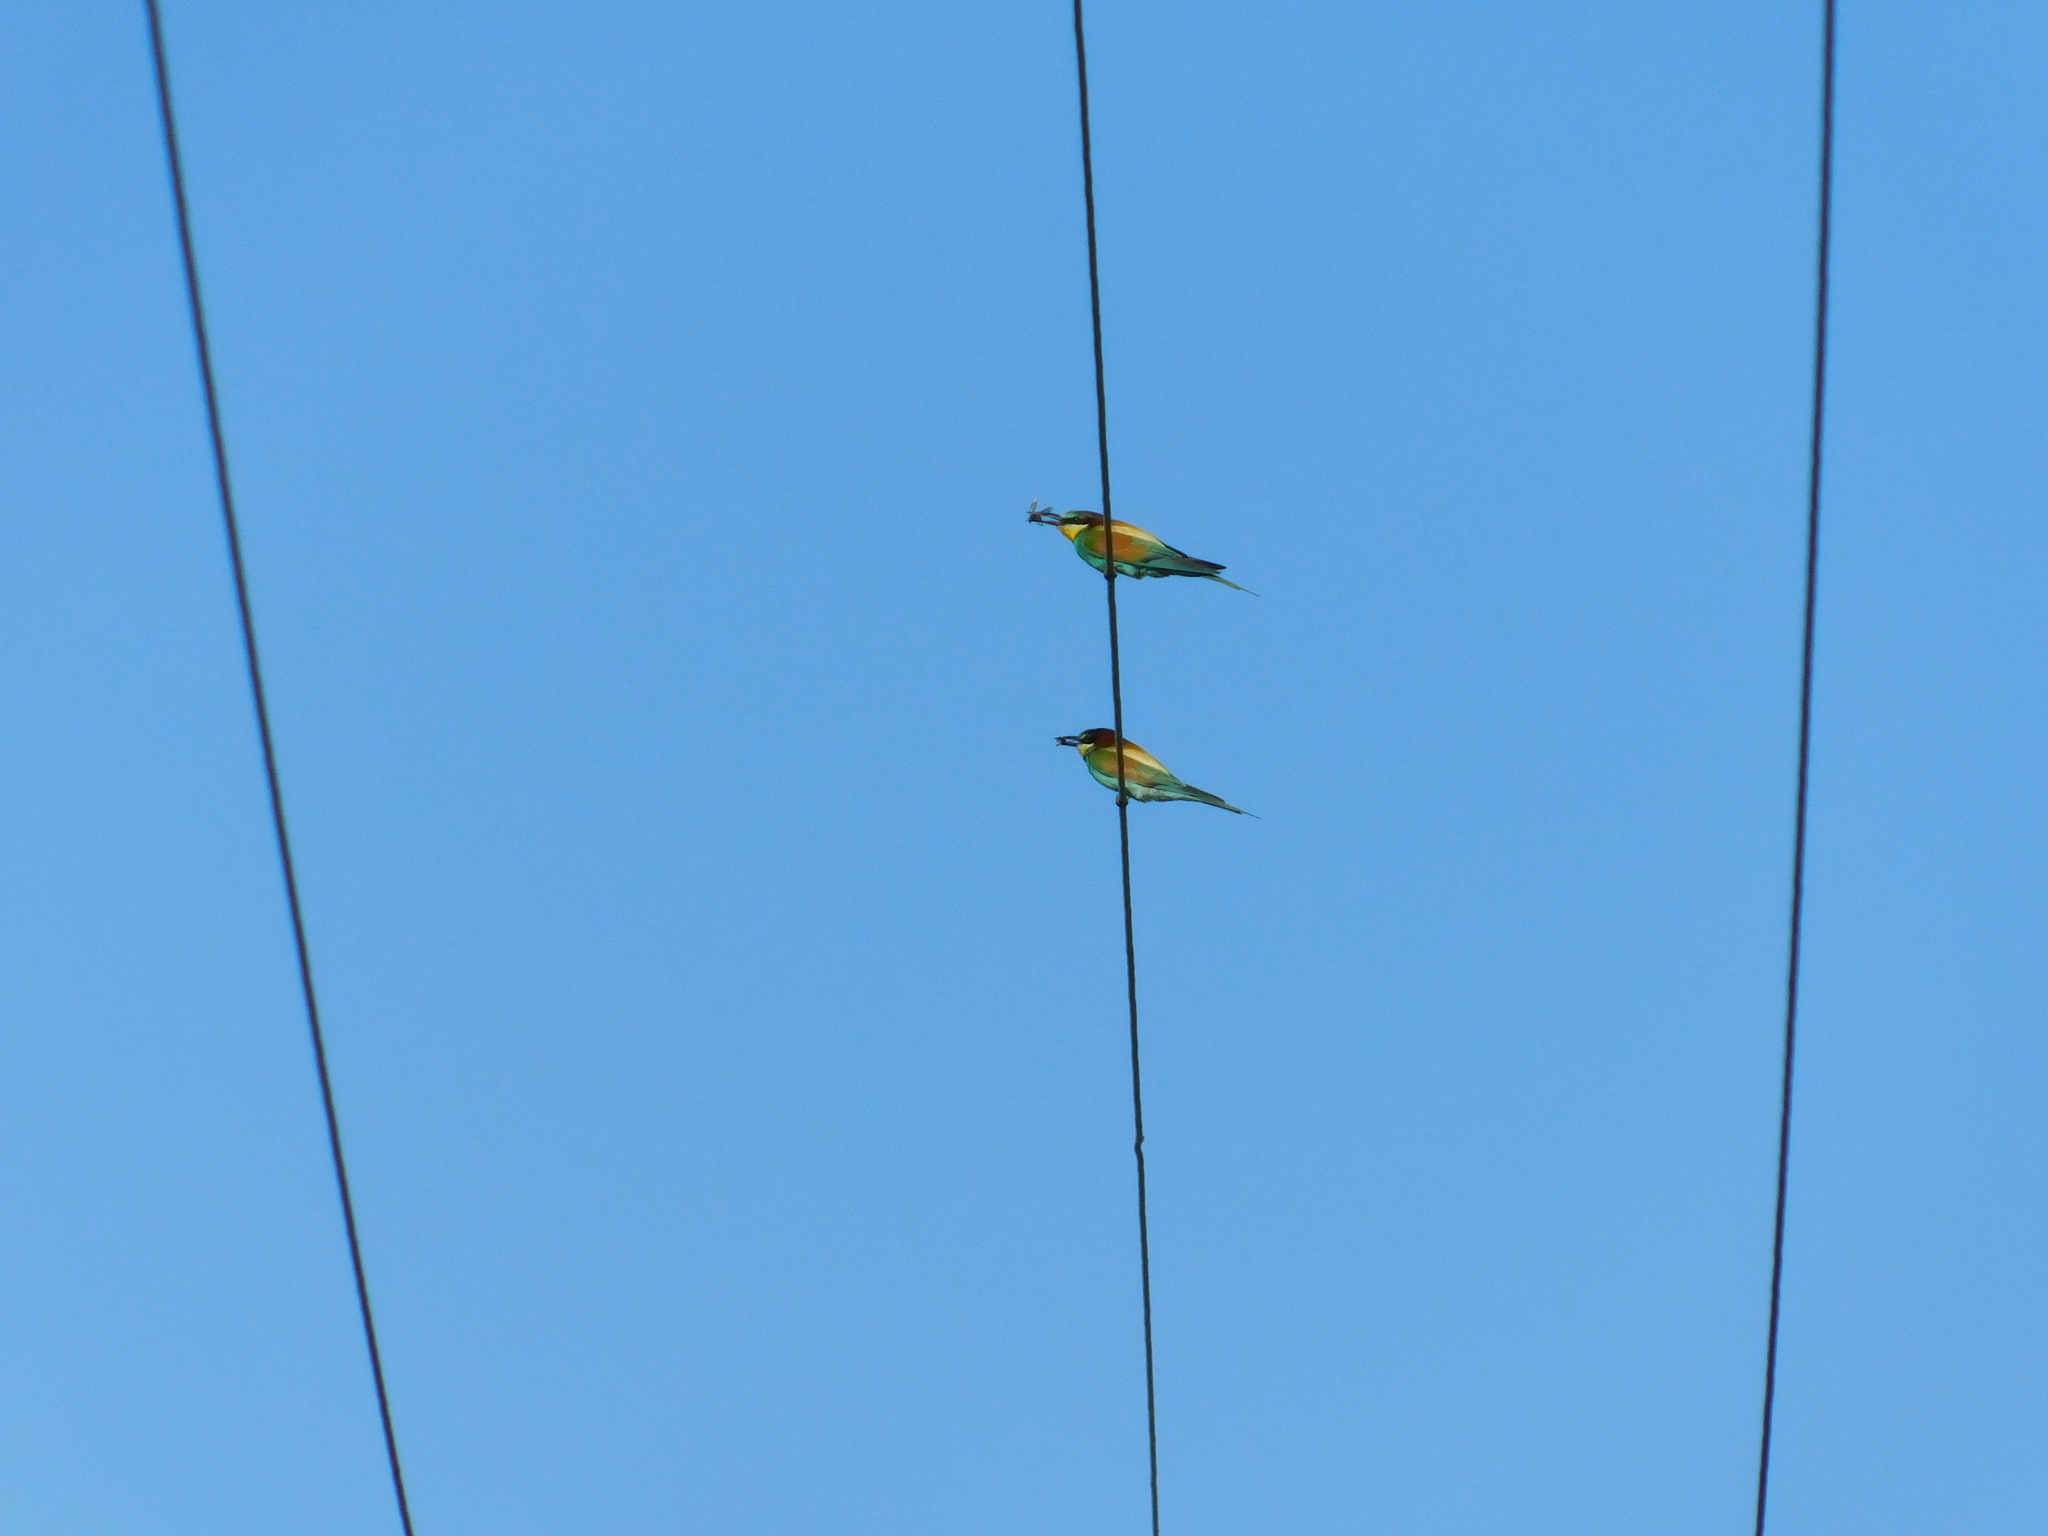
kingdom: Animalia
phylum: Chordata
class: Aves
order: Coraciiformes
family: Meropidae
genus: Merops
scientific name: Merops apiaster
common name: European bee-eater
